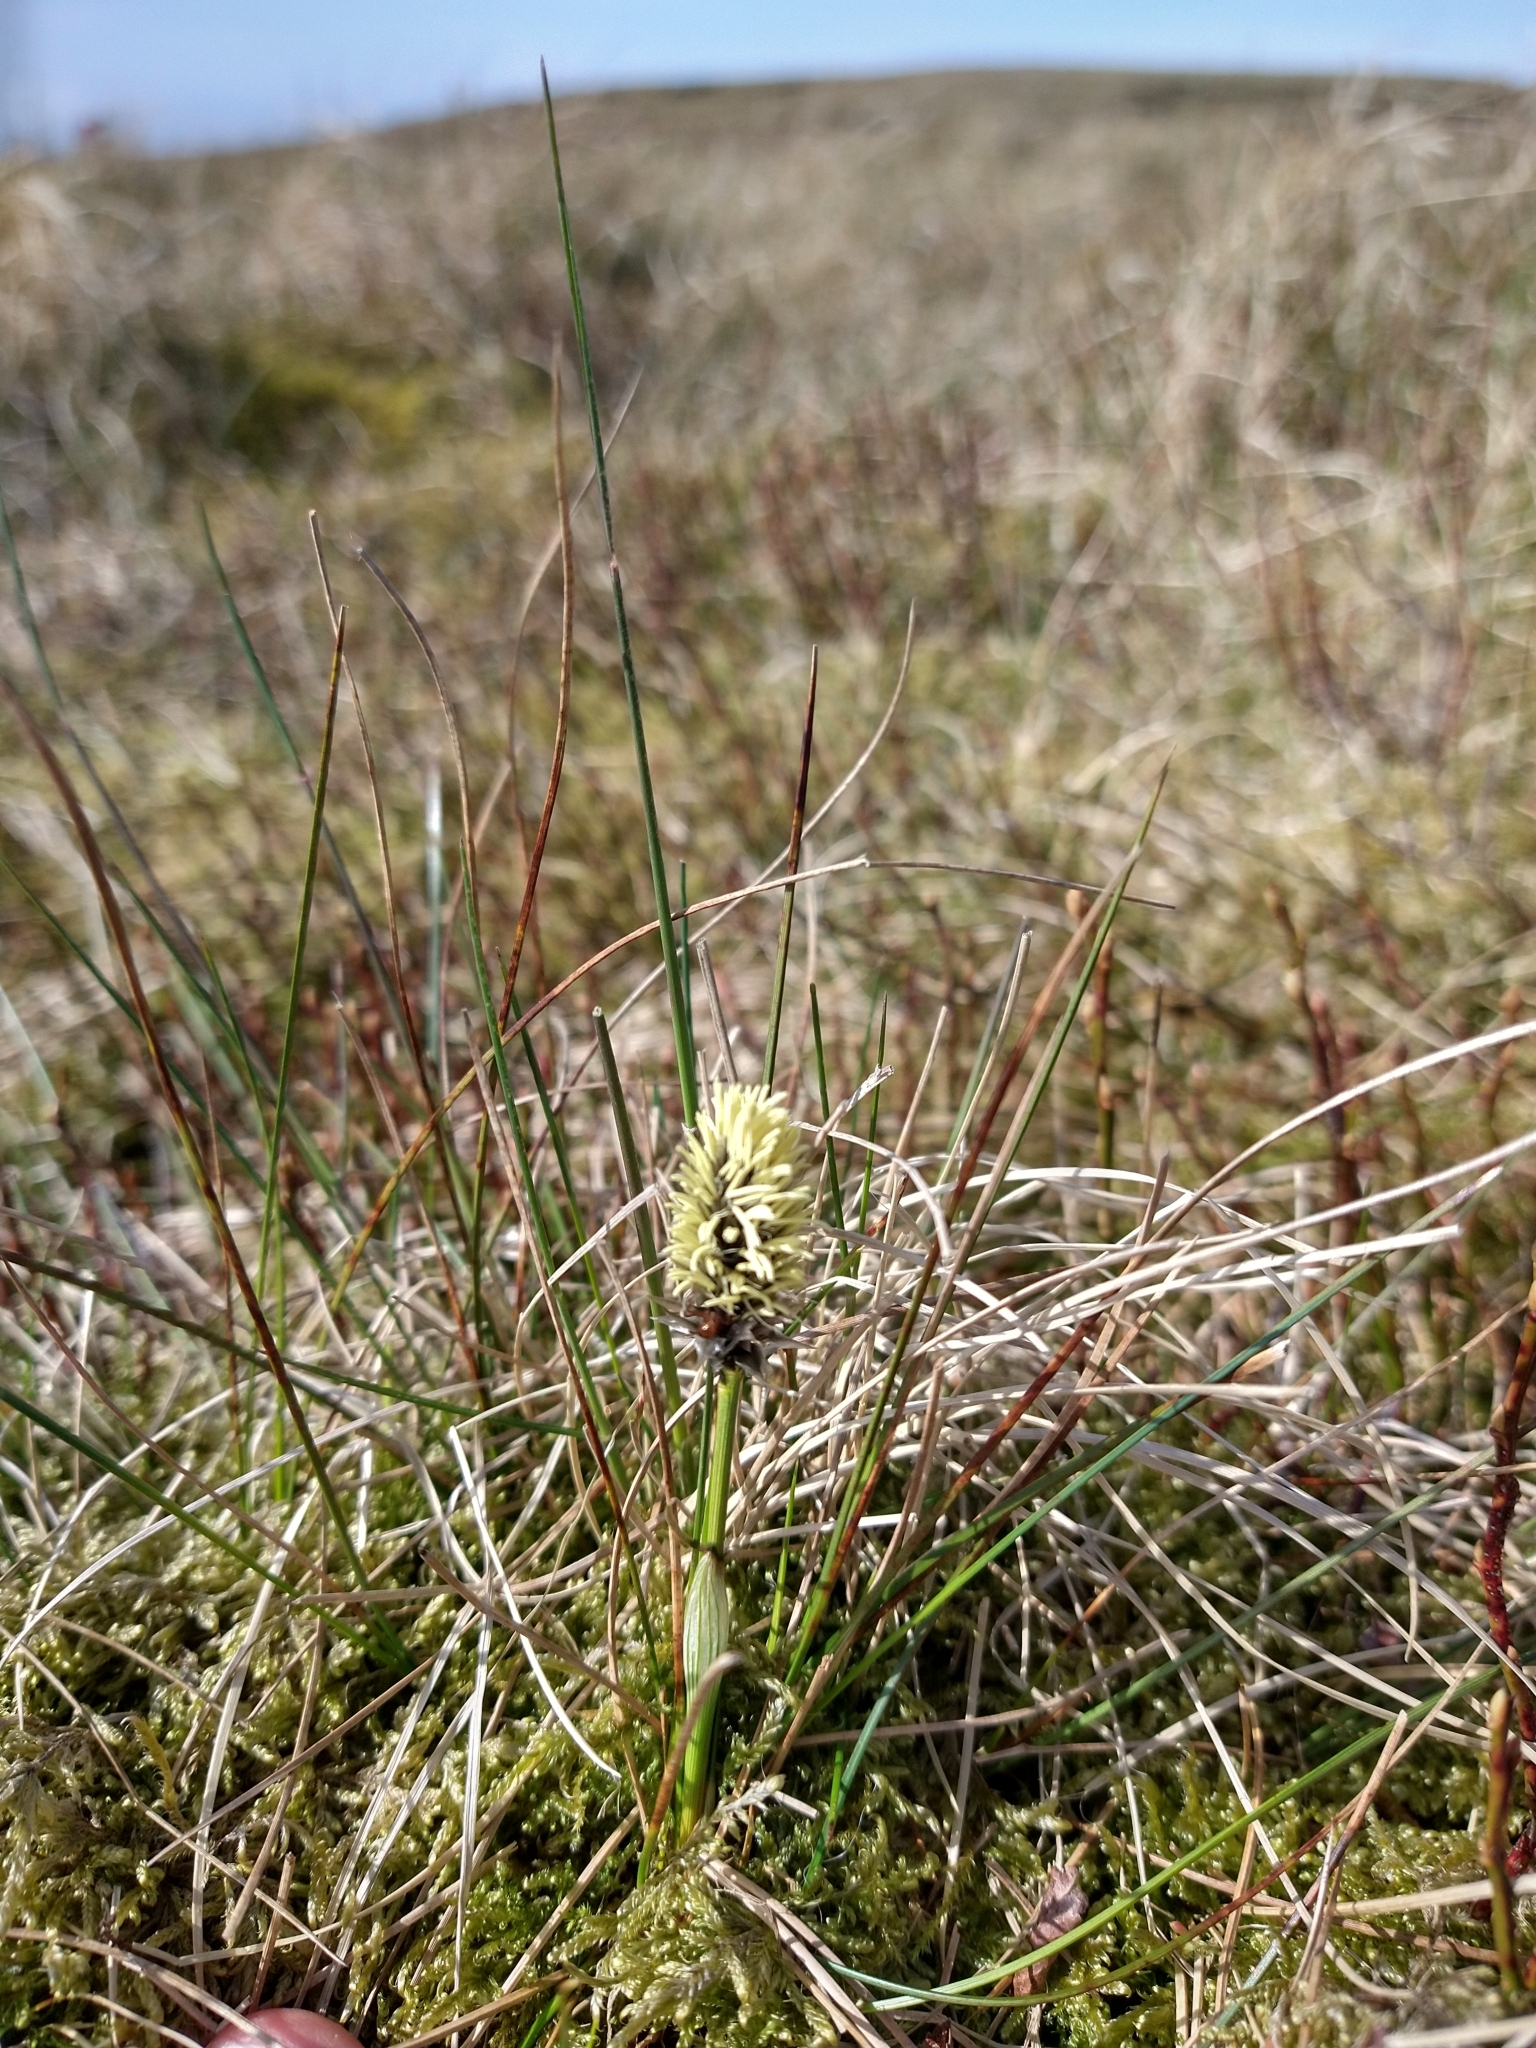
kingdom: Plantae
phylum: Tracheophyta
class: Liliopsida
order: Poales
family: Cyperaceae
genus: Eriophorum
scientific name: Eriophorum vaginatum
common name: Hare's-tail cottongrass
